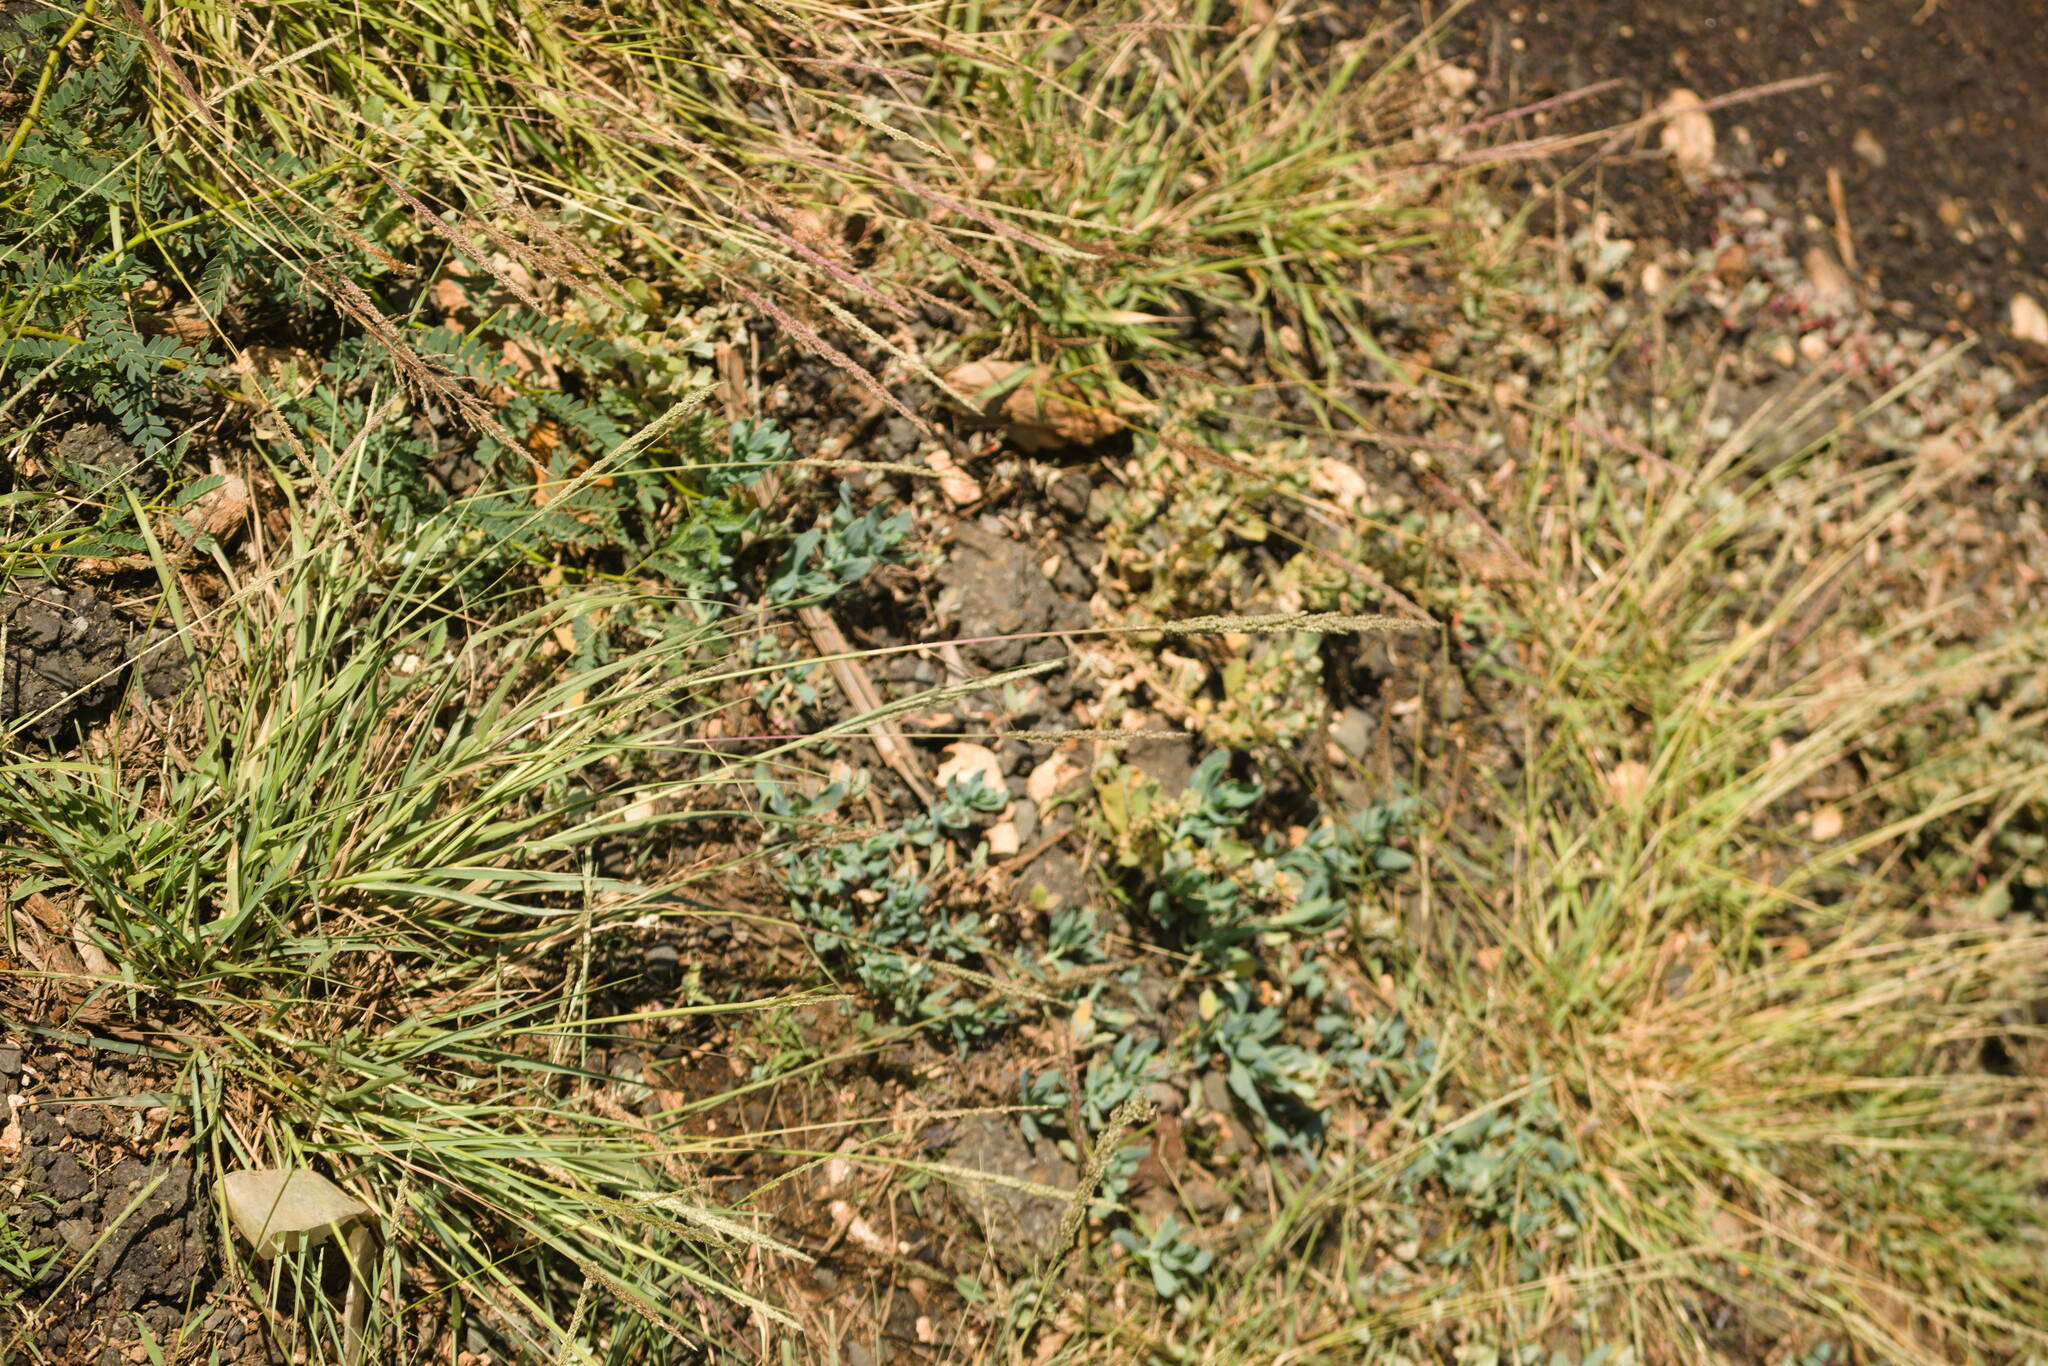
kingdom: Plantae
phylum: Tracheophyta
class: Liliopsida
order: Poales
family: Poaceae
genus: Sporobolus
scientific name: Sporobolus domingensis
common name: Coral dropseed
